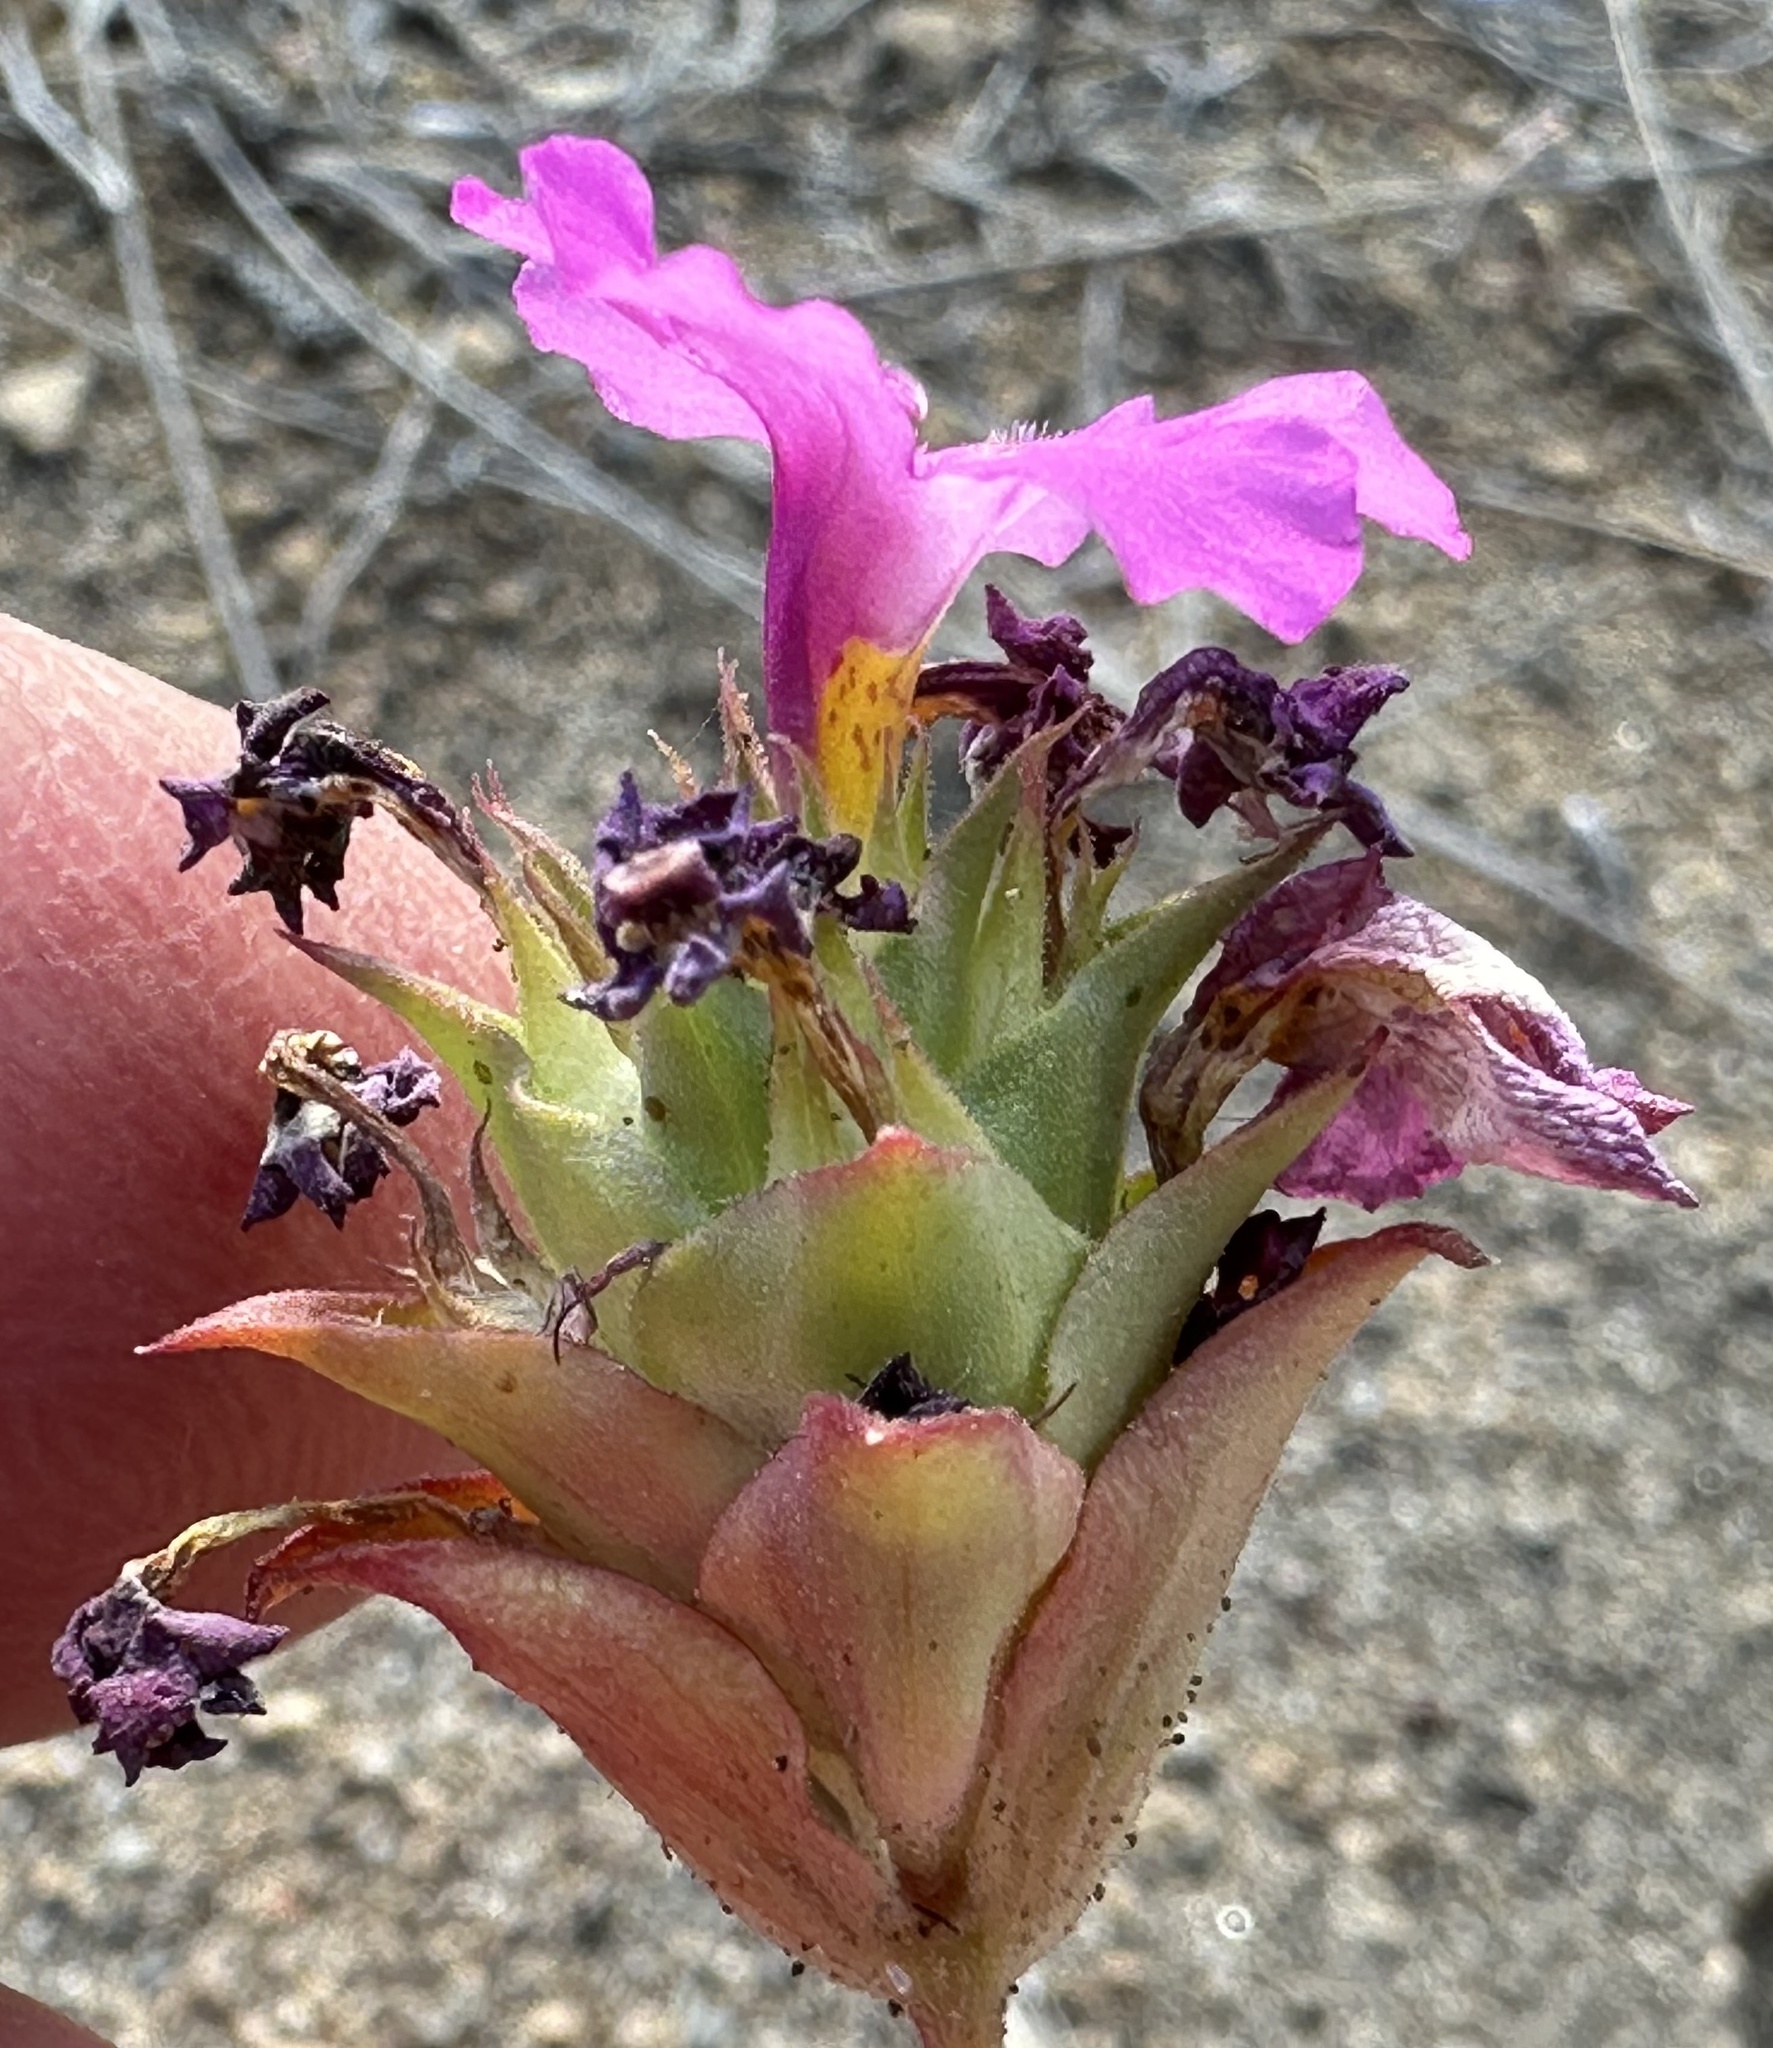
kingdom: Plantae
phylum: Tracheophyta
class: Magnoliopsida
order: Lamiales
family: Phrymaceae
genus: Diplacus
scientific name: Diplacus deschutesensis
